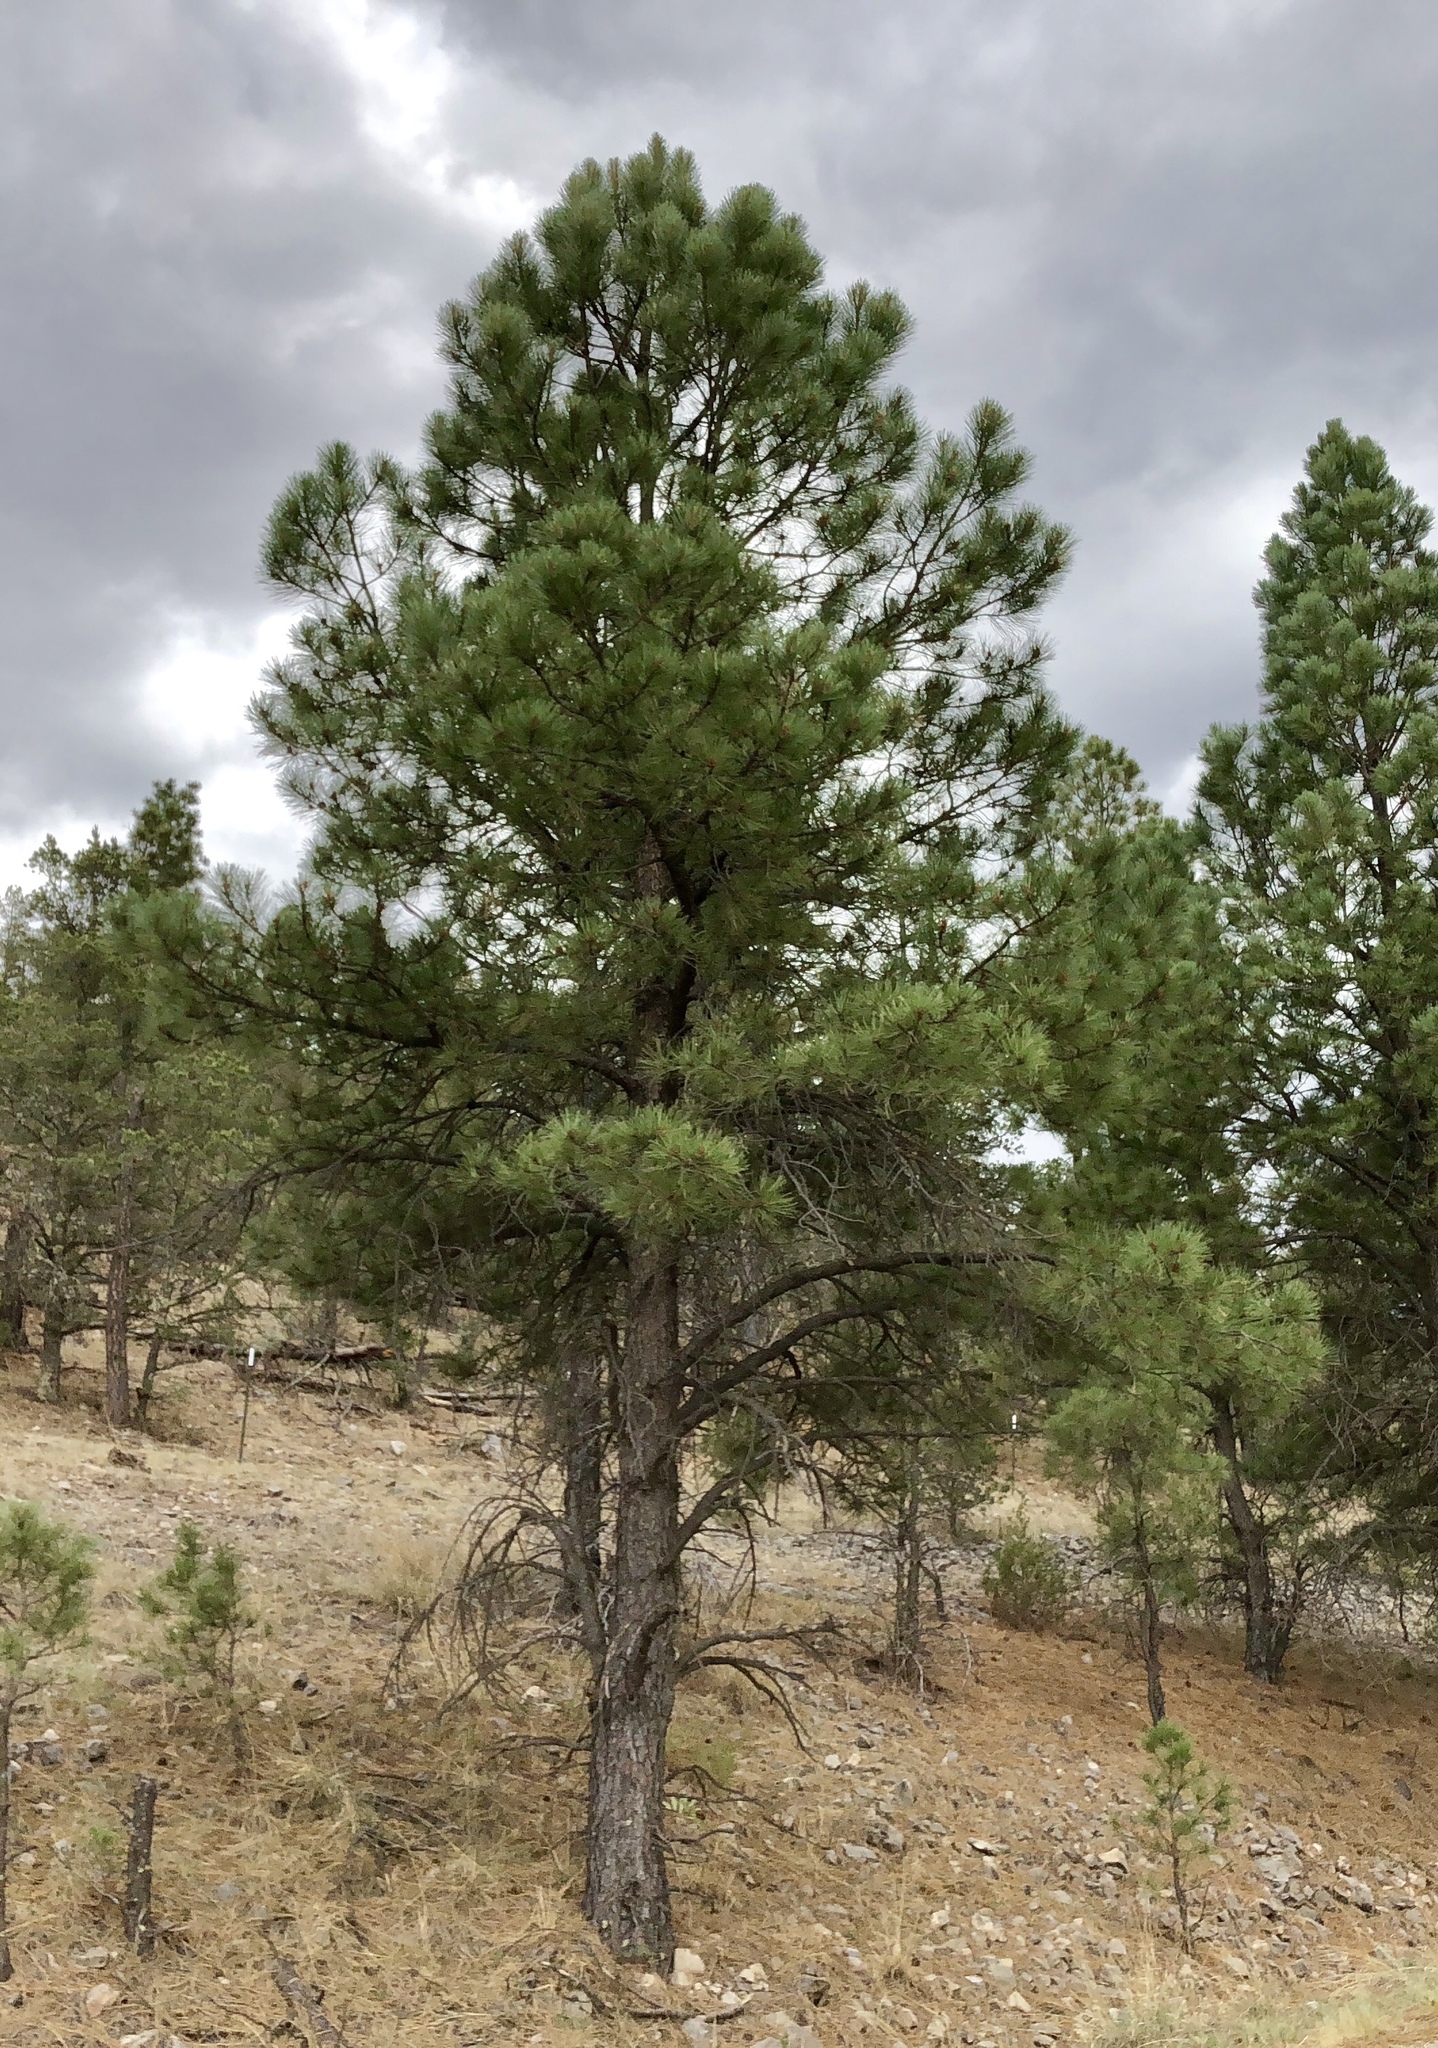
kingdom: Plantae
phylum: Tracheophyta
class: Pinopsida
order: Pinales
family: Pinaceae
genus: Pinus
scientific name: Pinus ponderosa
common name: Western yellow-pine
